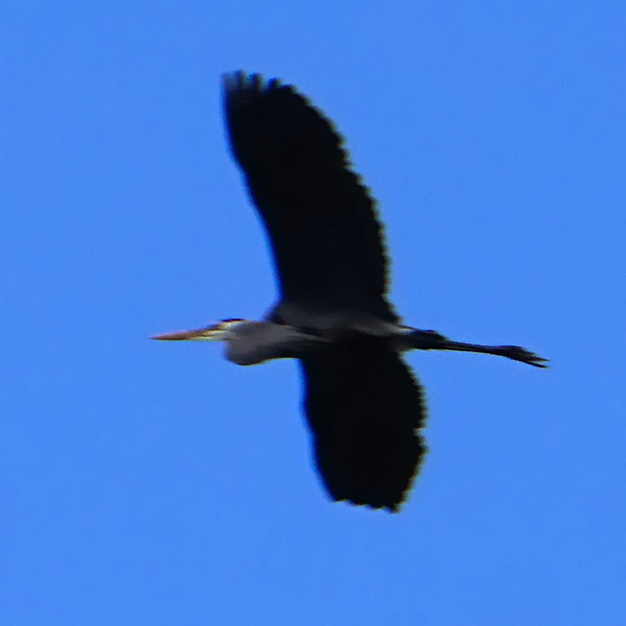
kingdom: Animalia
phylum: Chordata
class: Aves
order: Pelecaniformes
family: Ardeidae
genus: Ardea
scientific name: Ardea herodias
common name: Great blue heron
